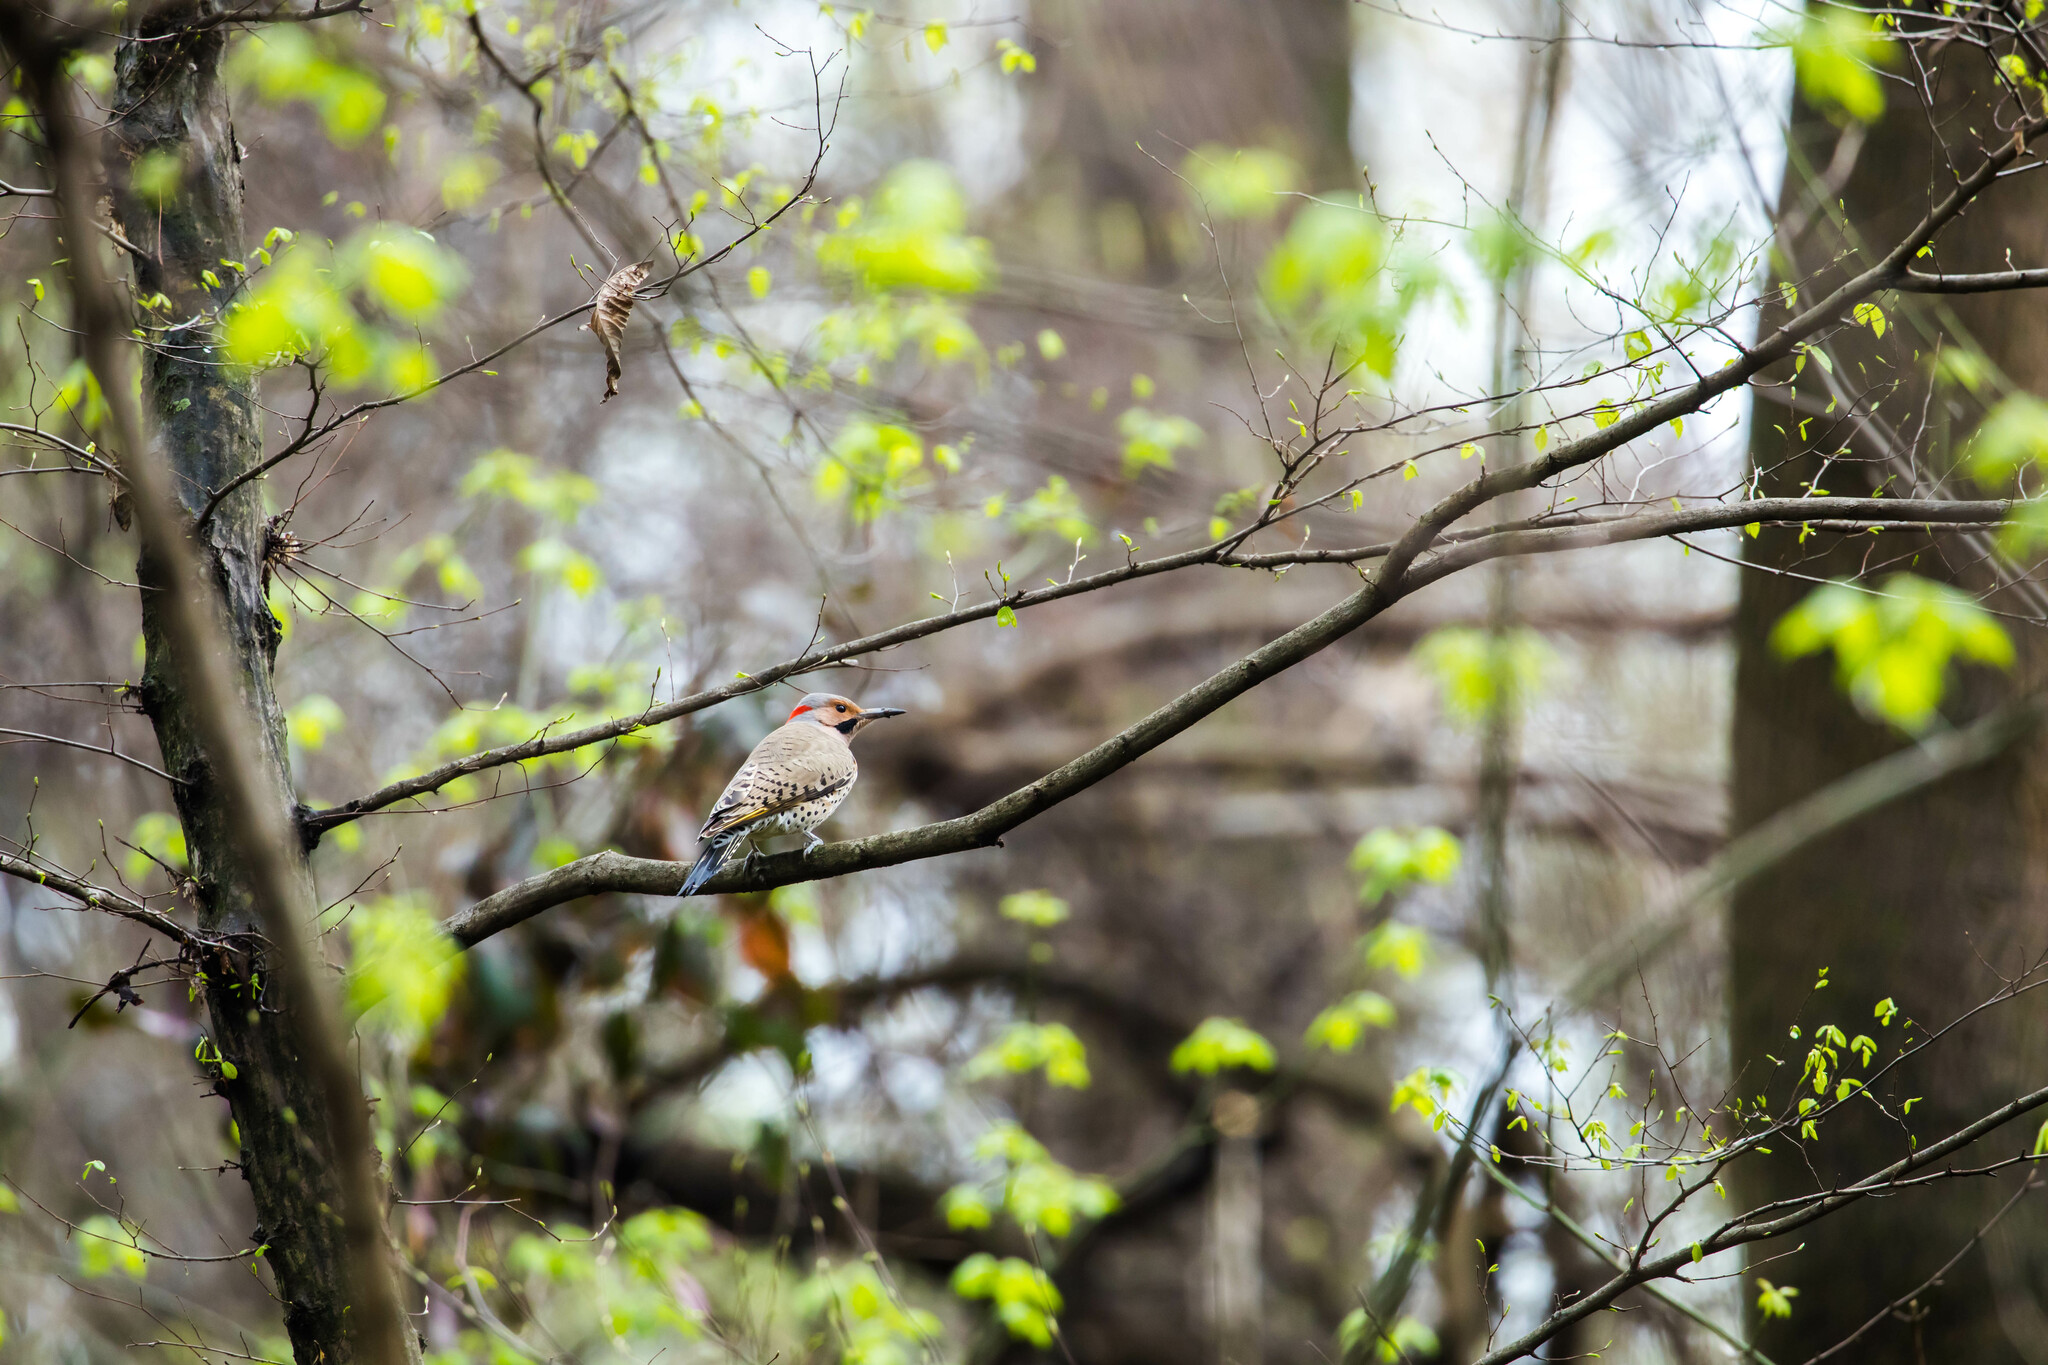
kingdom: Animalia
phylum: Chordata
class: Aves
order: Piciformes
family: Picidae
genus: Colaptes
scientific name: Colaptes auratus
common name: Northern flicker
